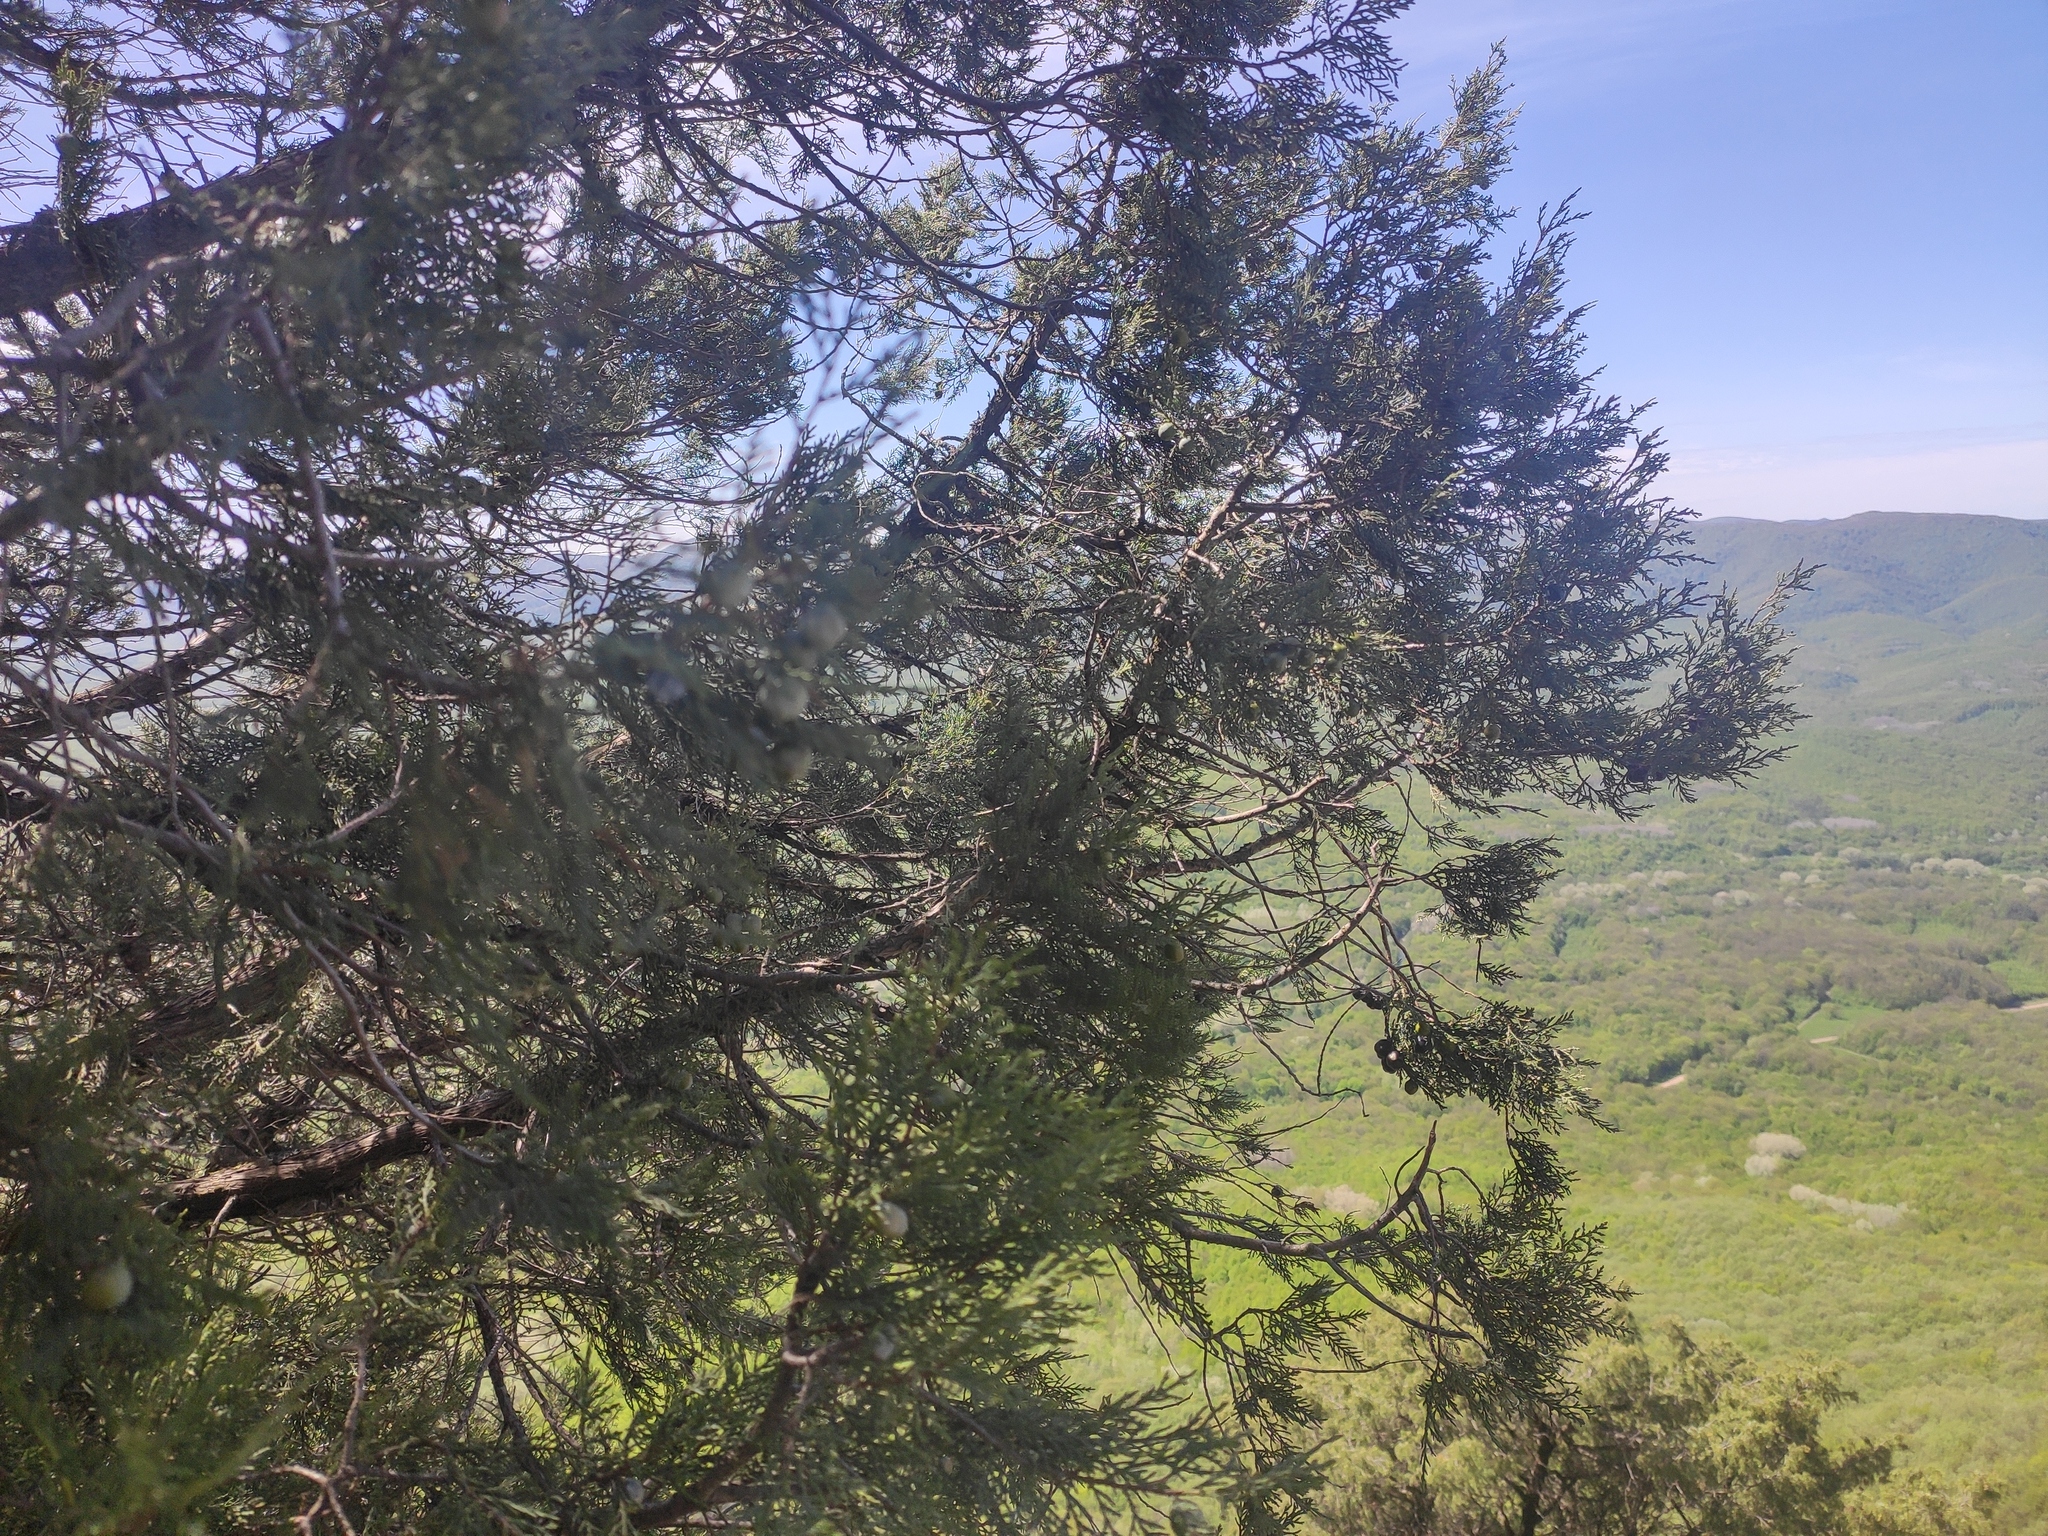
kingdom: Plantae
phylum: Tracheophyta
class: Pinopsida
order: Pinales
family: Cupressaceae
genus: Juniperus
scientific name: Juniperus excelsa
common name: Crimean juniper
